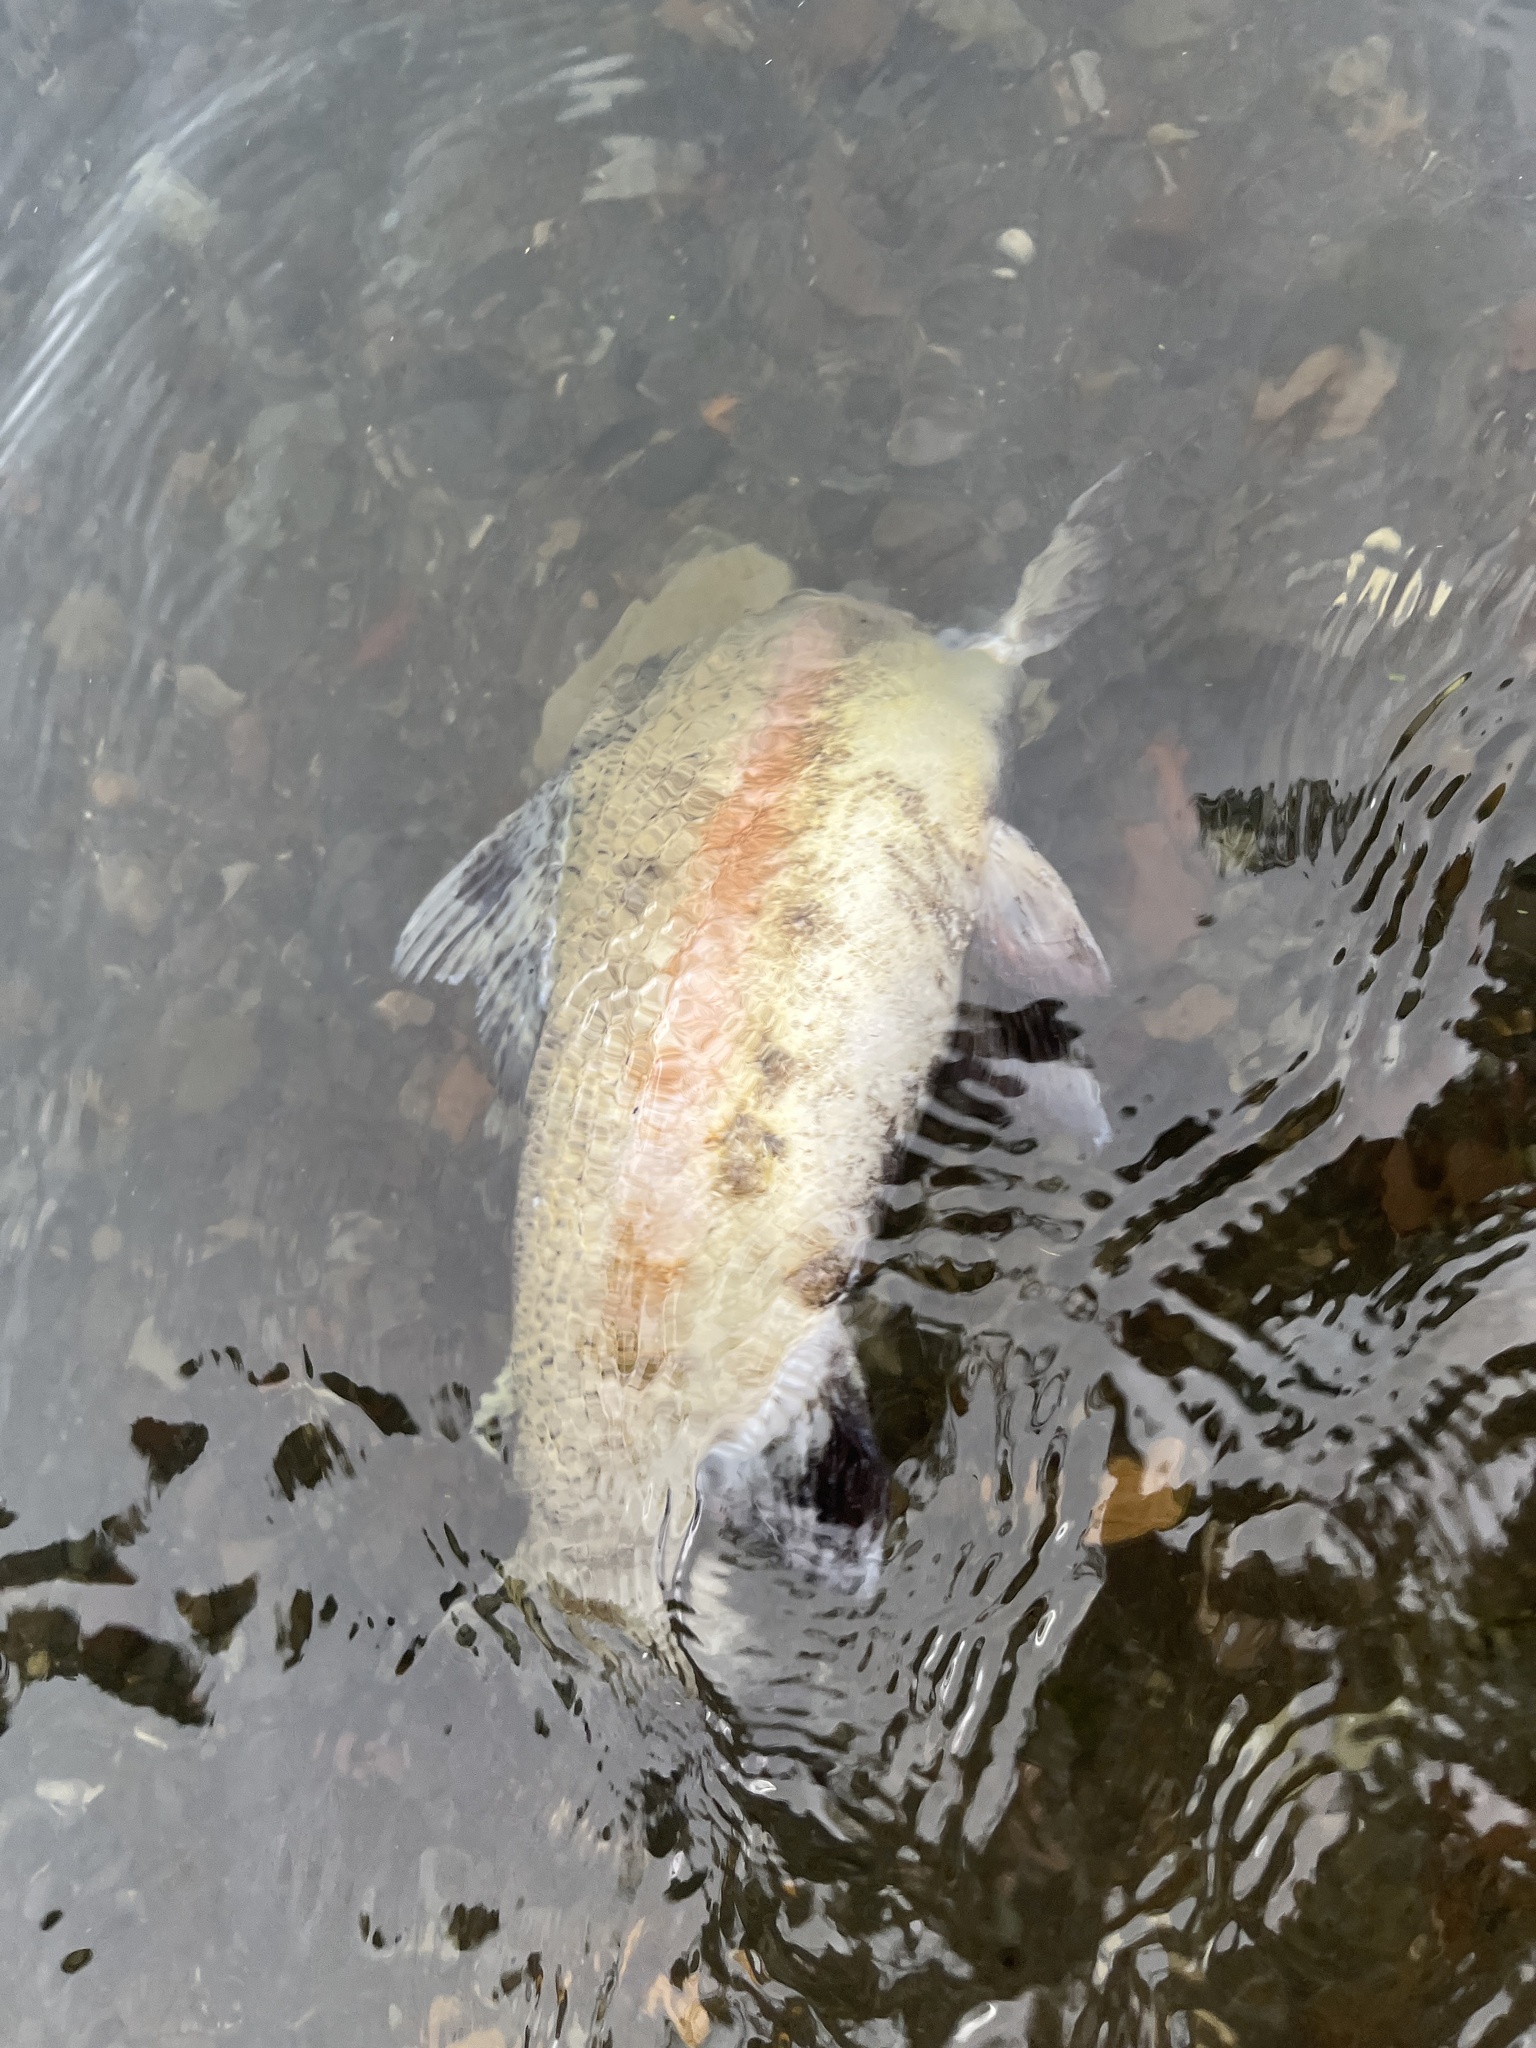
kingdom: Animalia
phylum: Chordata
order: Salmoniformes
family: Salmonidae
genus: Oncorhynchus
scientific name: Oncorhynchus mykiss
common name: Rainbow trout
